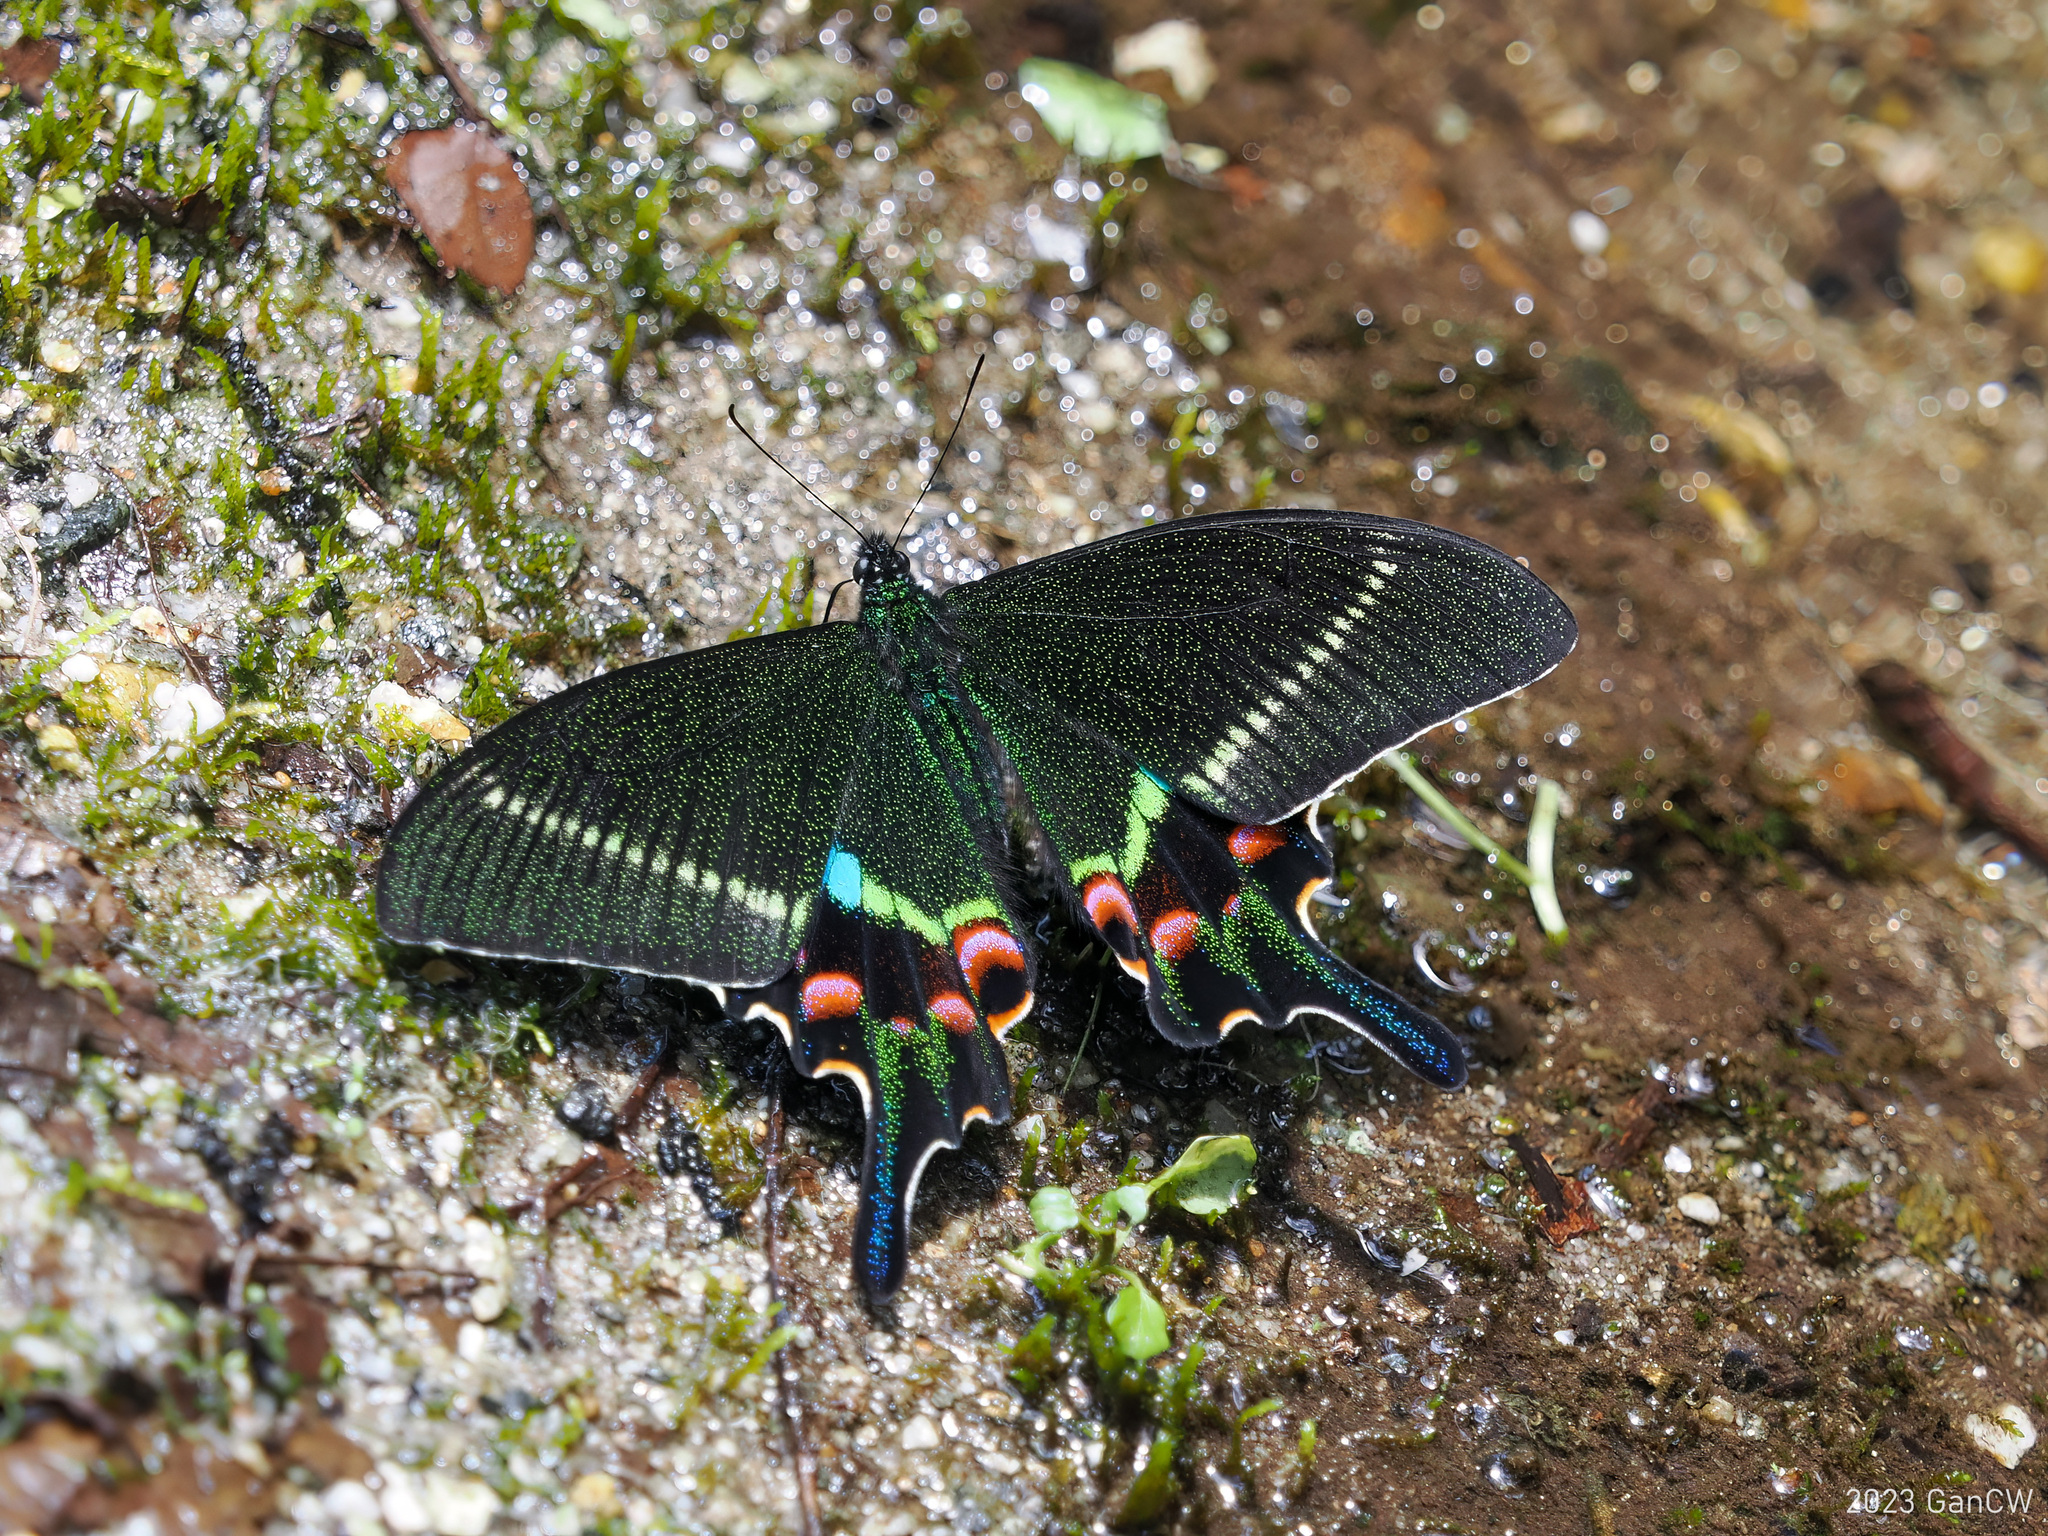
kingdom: Animalia
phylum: Arthropoda
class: Insecta
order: Lepidoptera
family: Papilionidae
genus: Papilio
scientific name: Papilio krishna
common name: Krishna peacock
